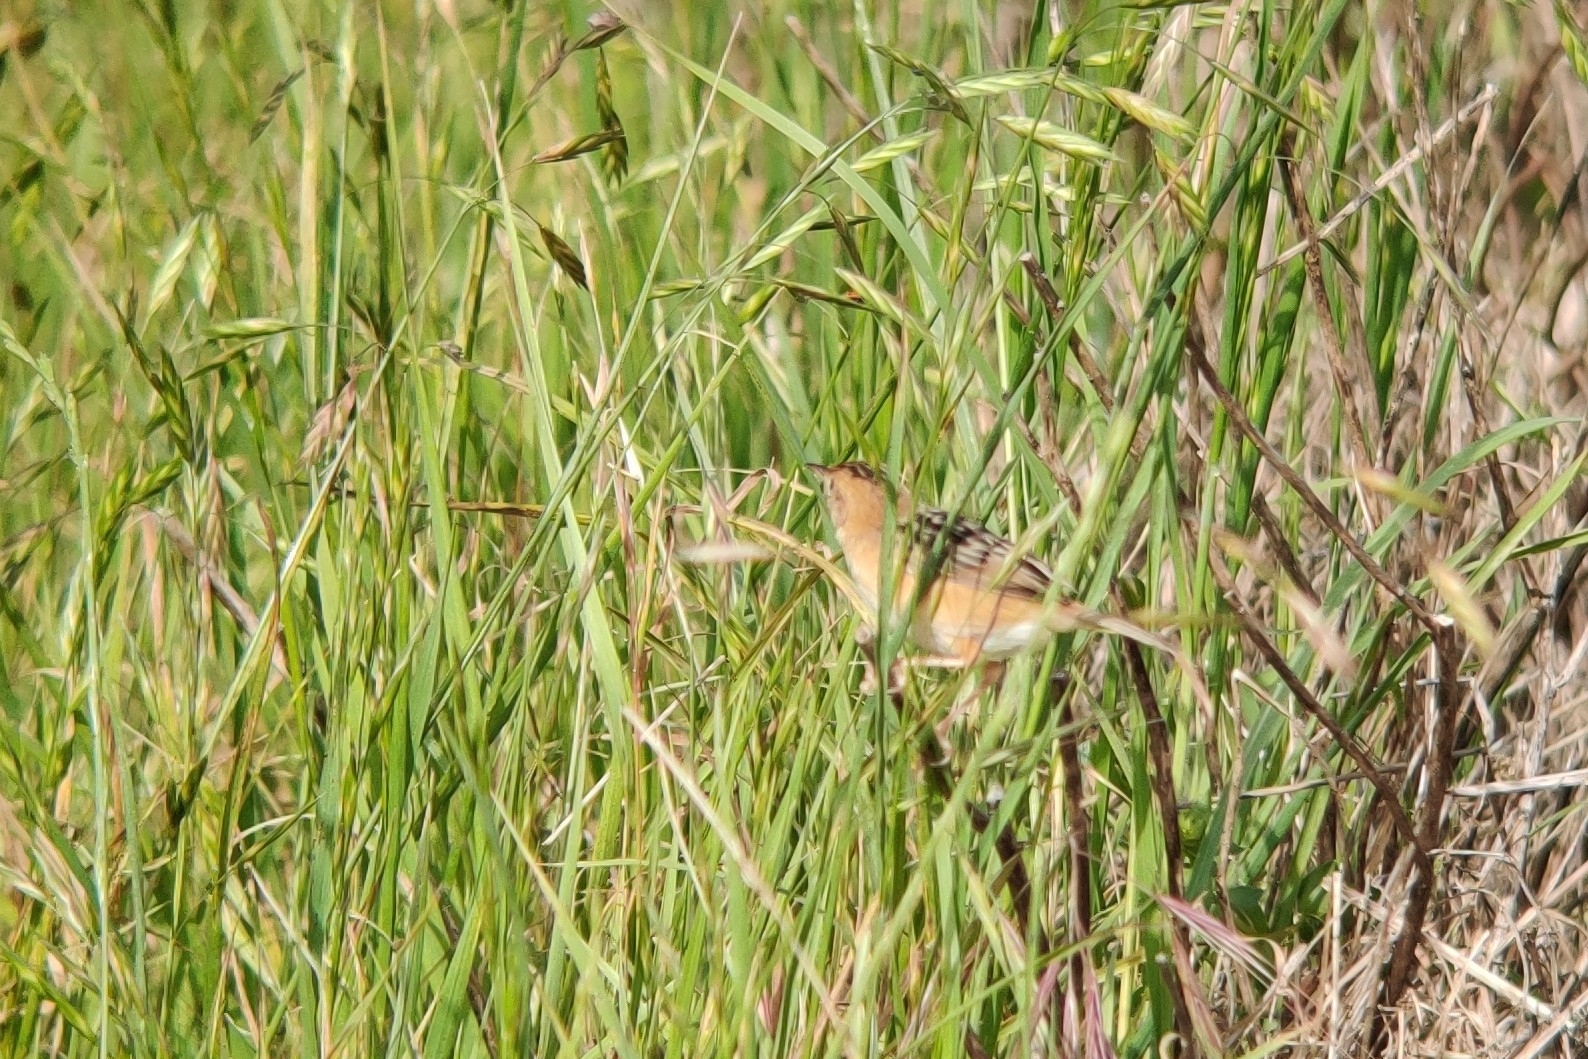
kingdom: Animalia
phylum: Chordata
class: Aves
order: Passeriformes
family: Cisticolidae
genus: Cisticola
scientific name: Cisticola exilis
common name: Golden-headed cisticola
